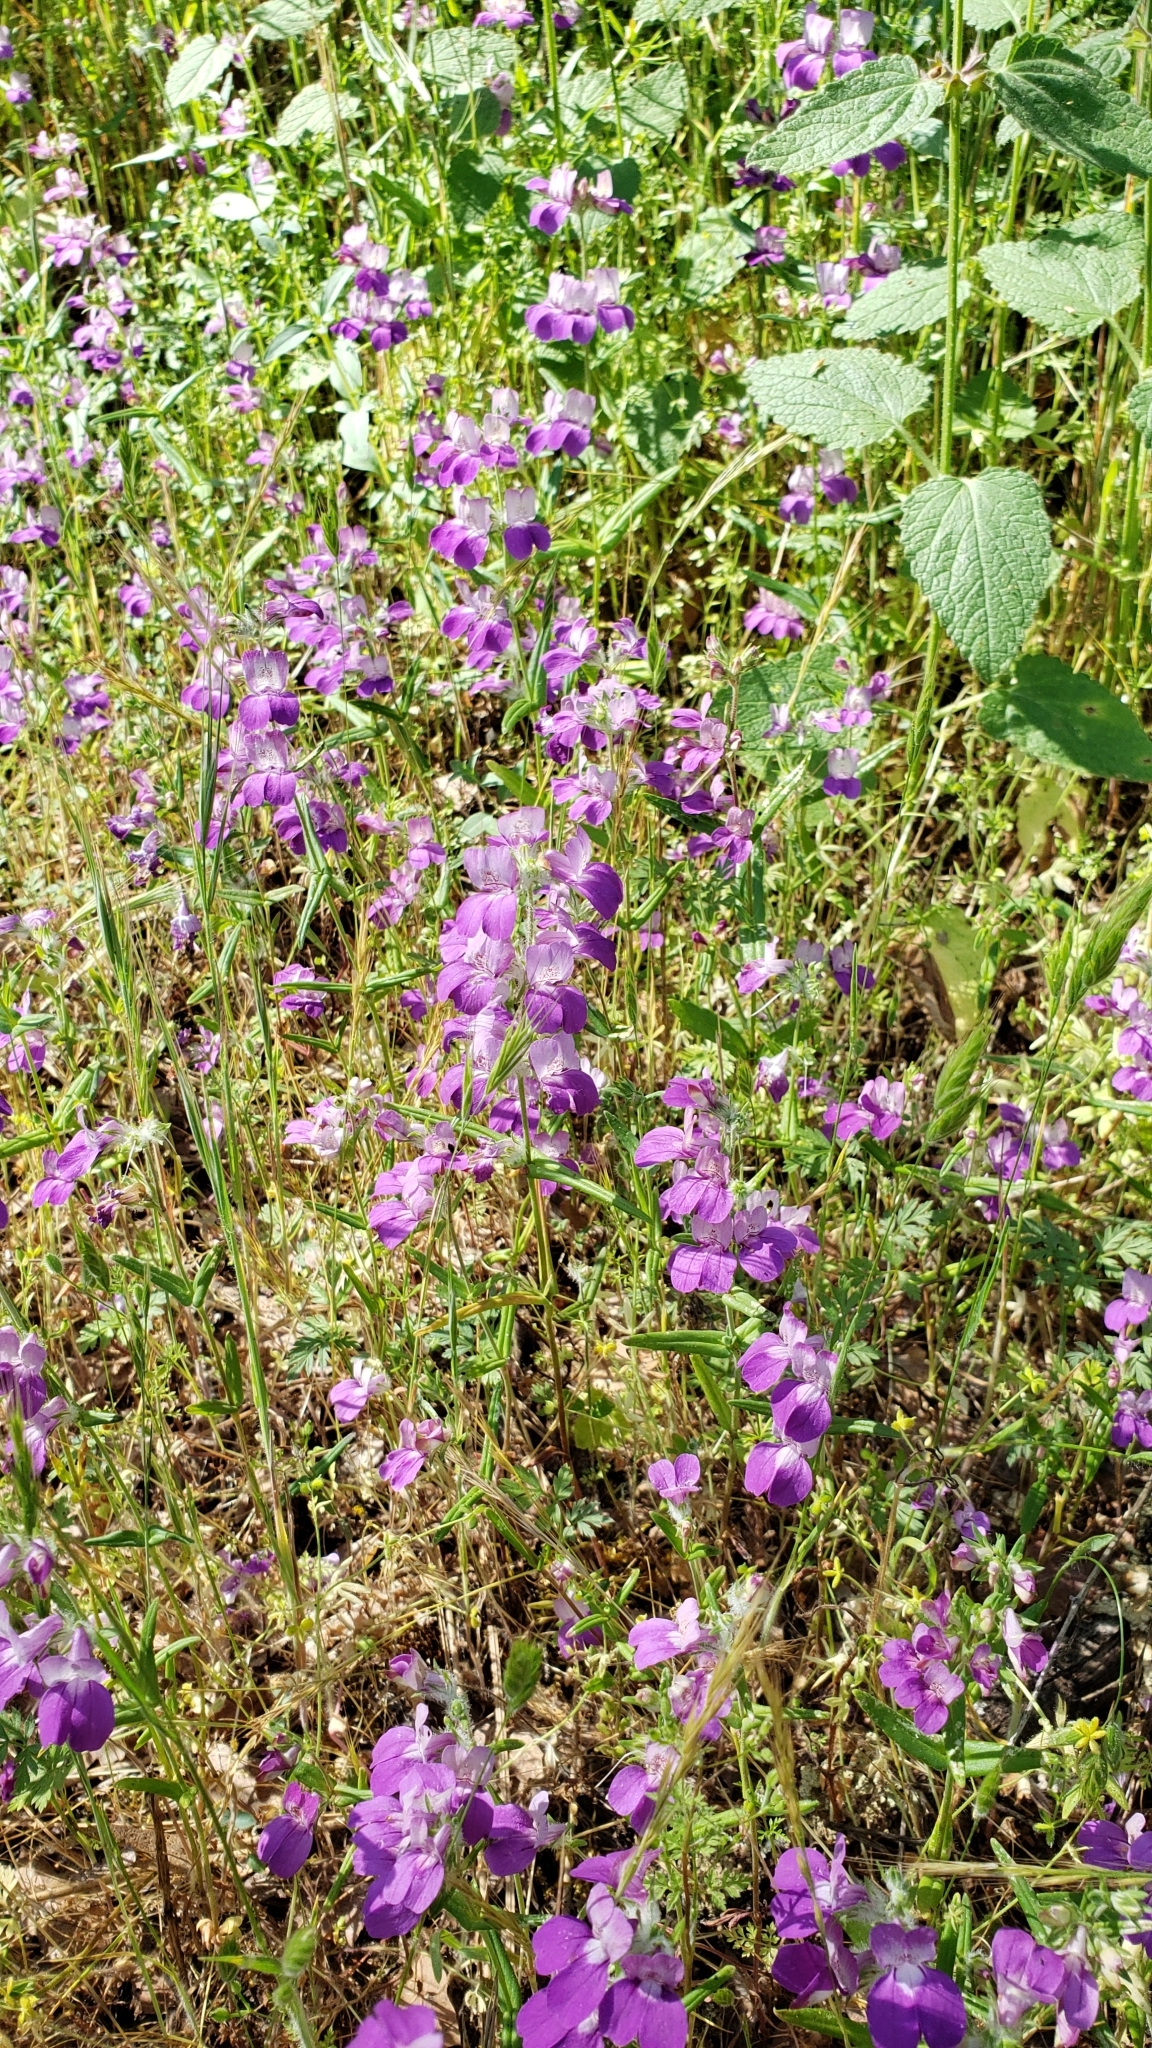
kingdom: Plantae
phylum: Tracheophyta
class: Magnoliopsida
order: Lamiales
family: Plantaginaceae
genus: Collinsia
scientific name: Collinsia heterophylla
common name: Chinese-houses
